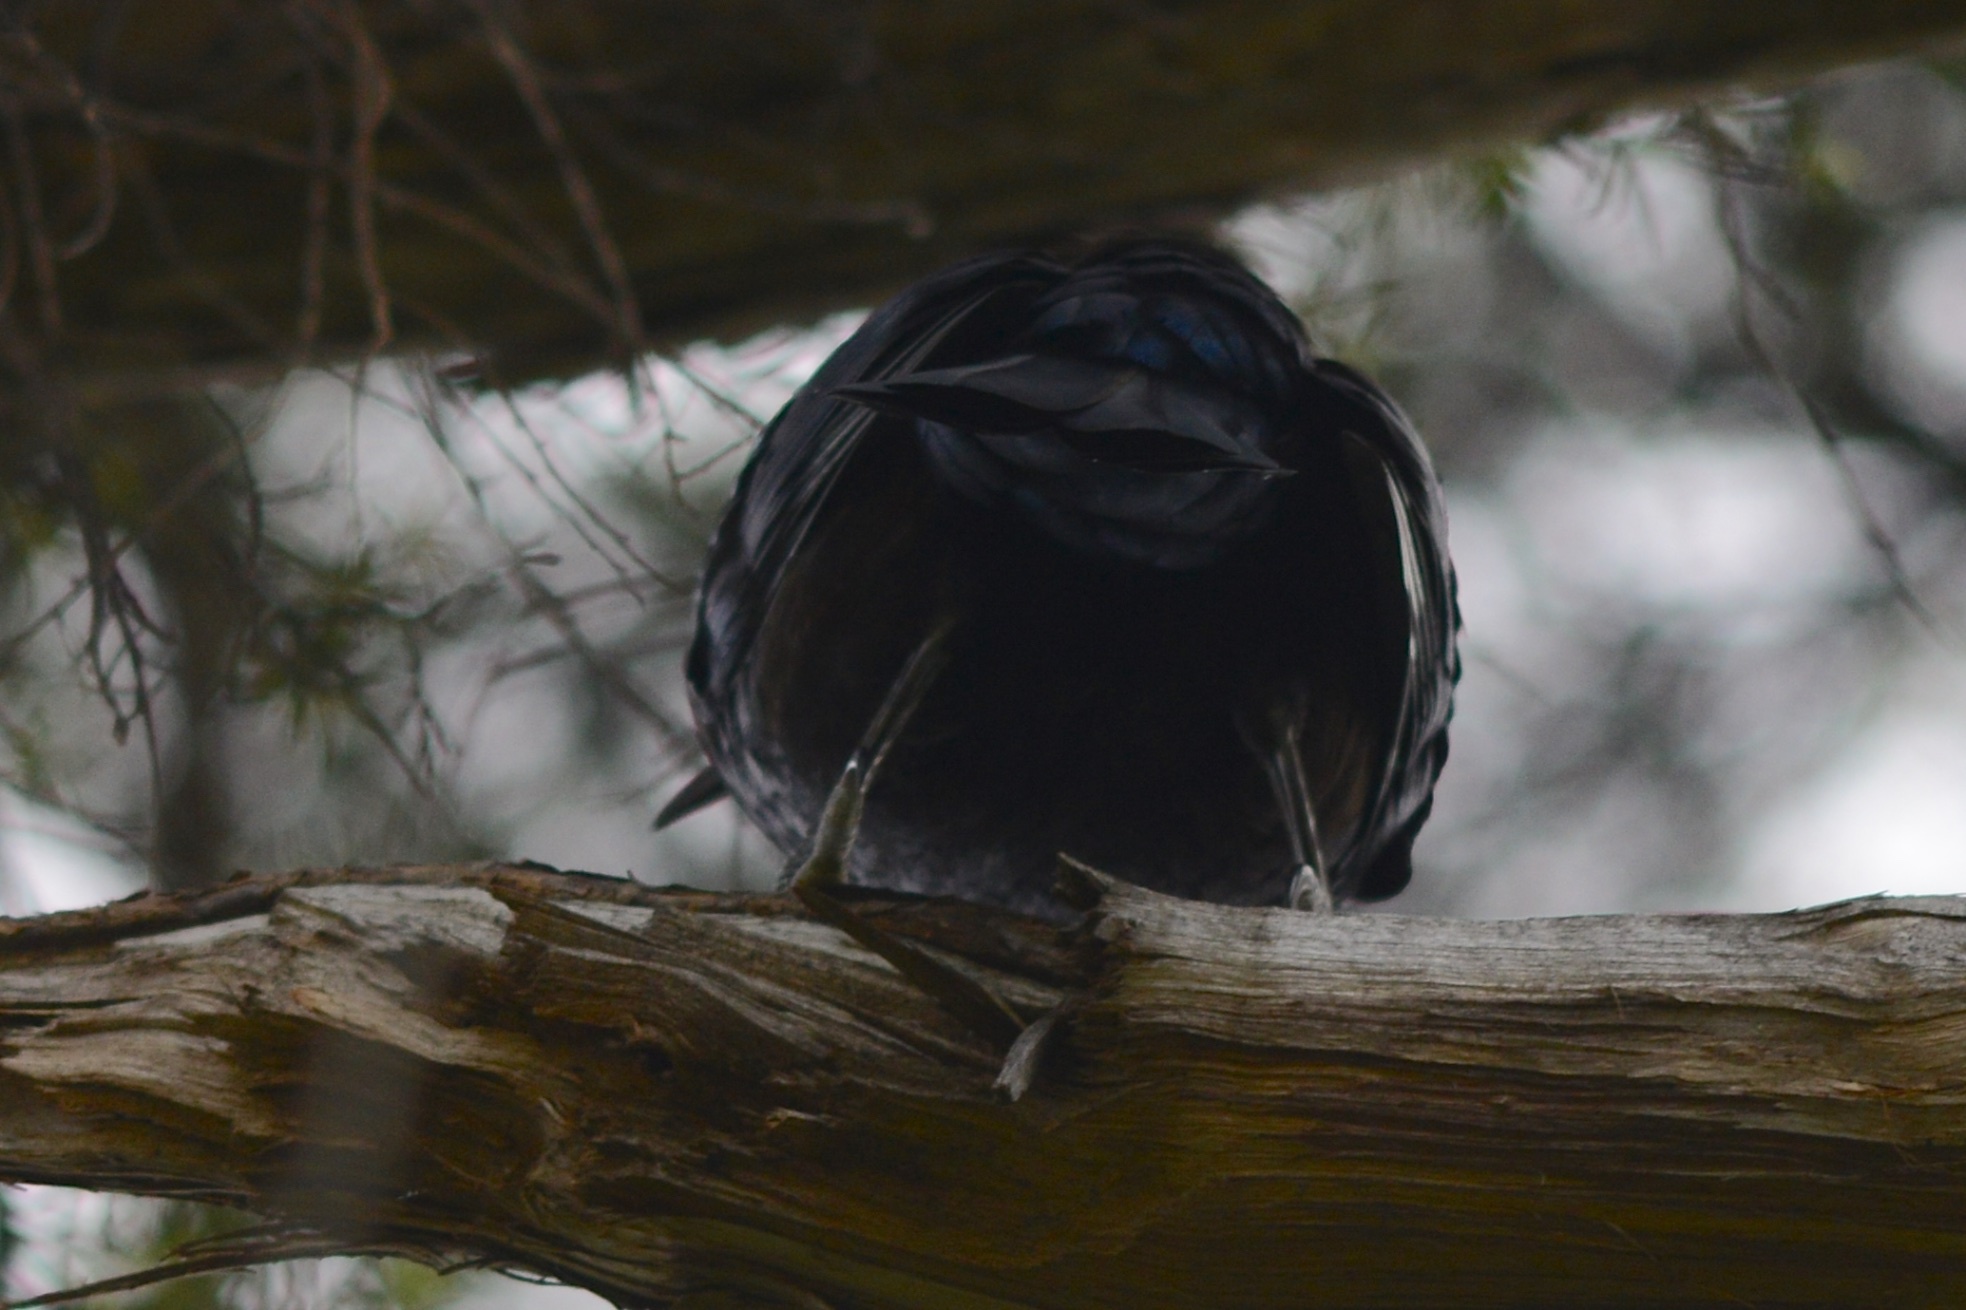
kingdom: Animalia
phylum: Chordata
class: Aves
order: Passeriformes
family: Meliphagidae
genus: Prosthemadera
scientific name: Prosthemadera novaeseelandiae
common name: Tui
